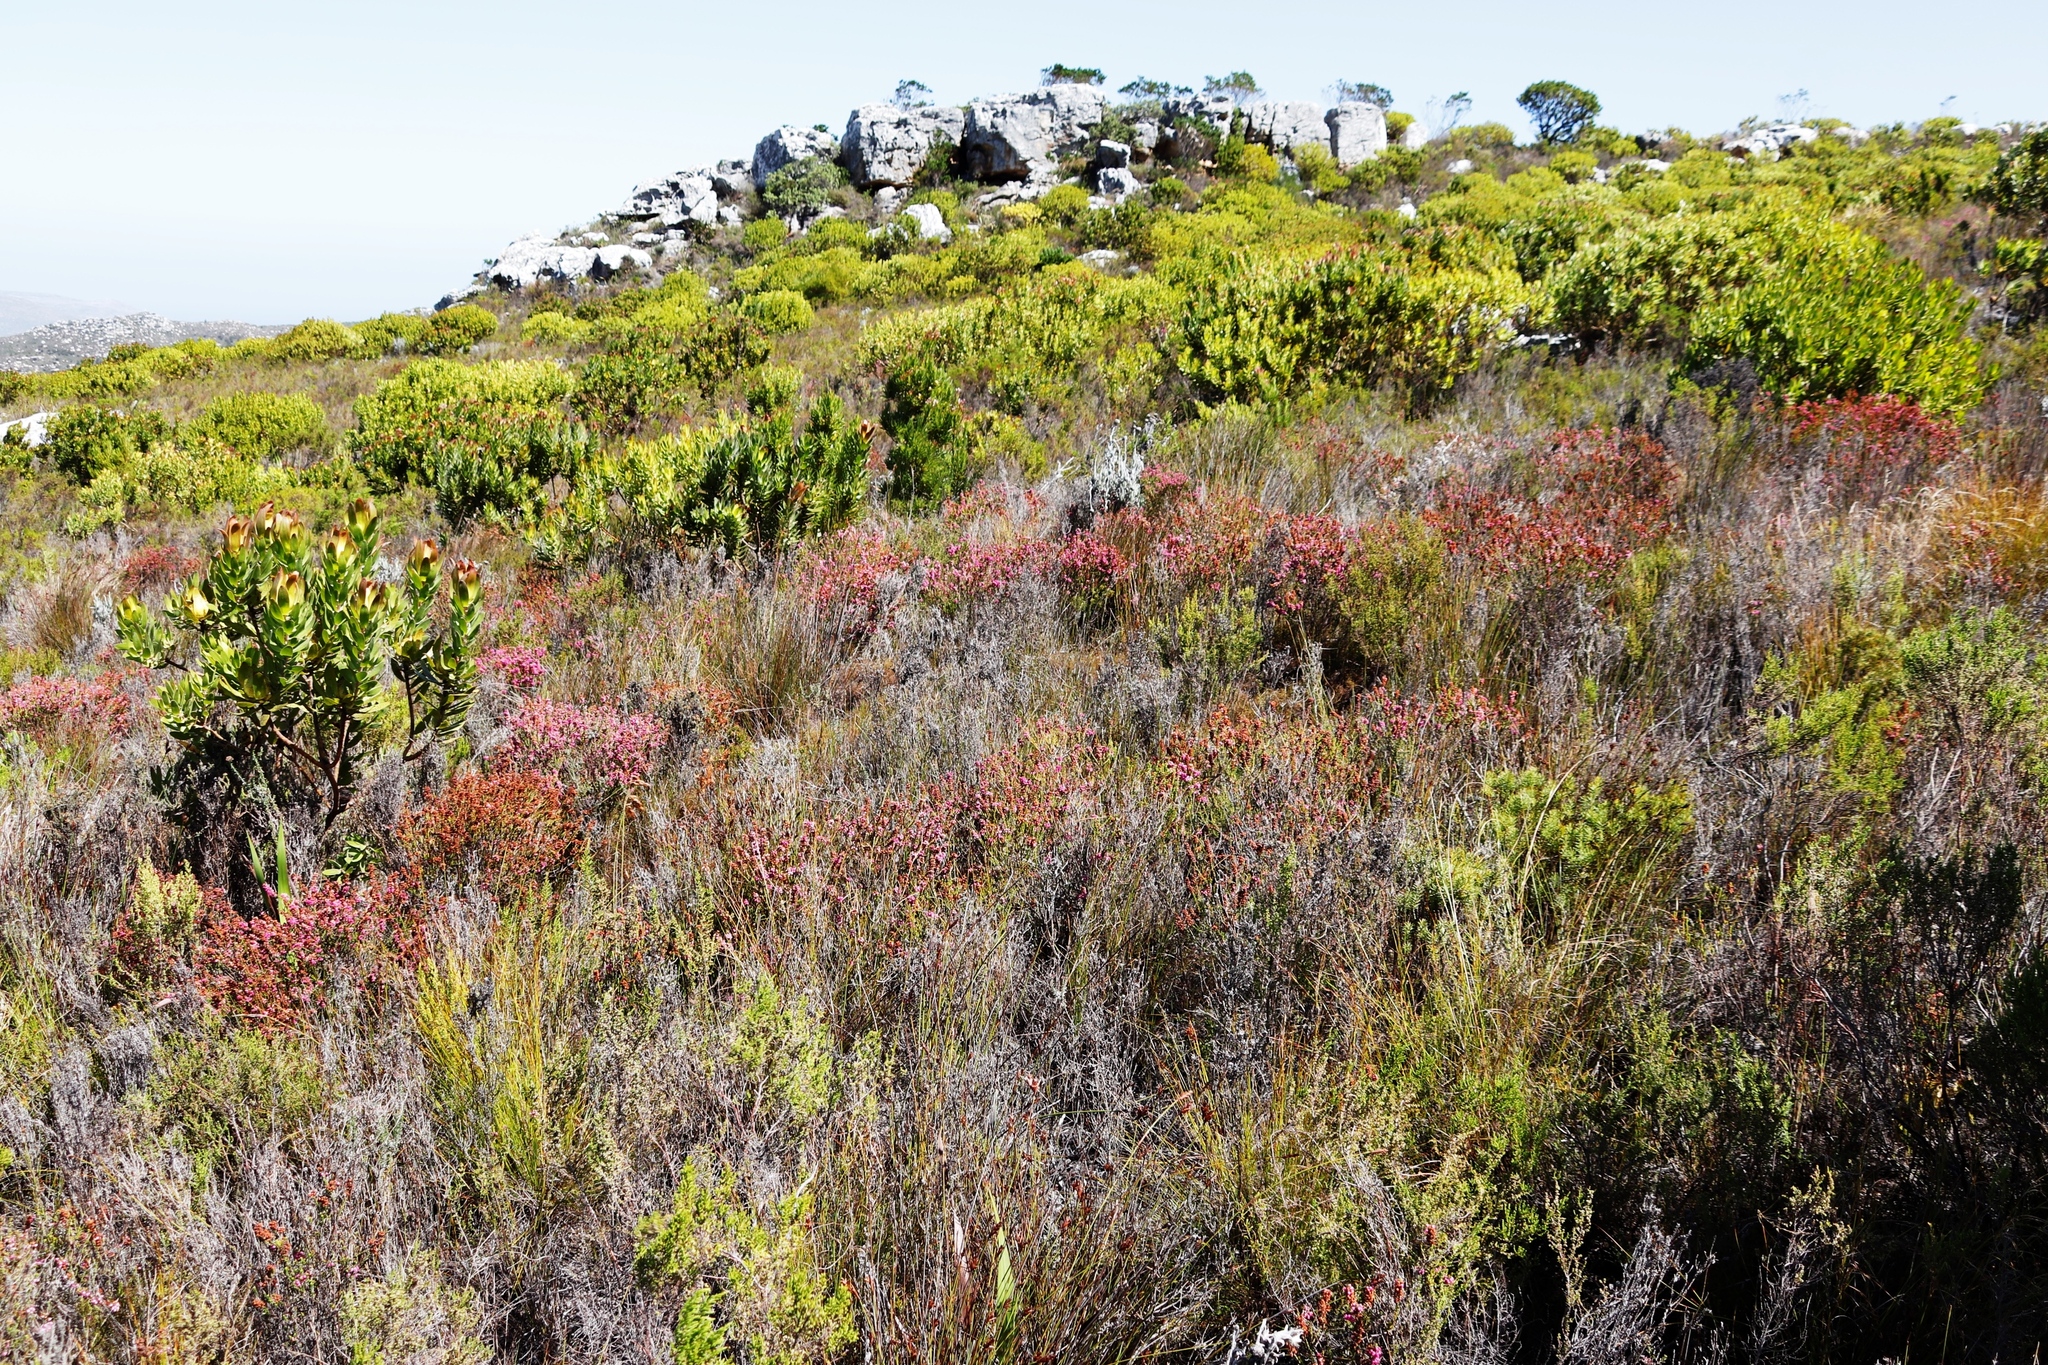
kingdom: Plantae
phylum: Tracheophyta
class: Magnoliopsida
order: Ericales
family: Ericaceae
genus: Erica
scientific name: Erica pulchella
